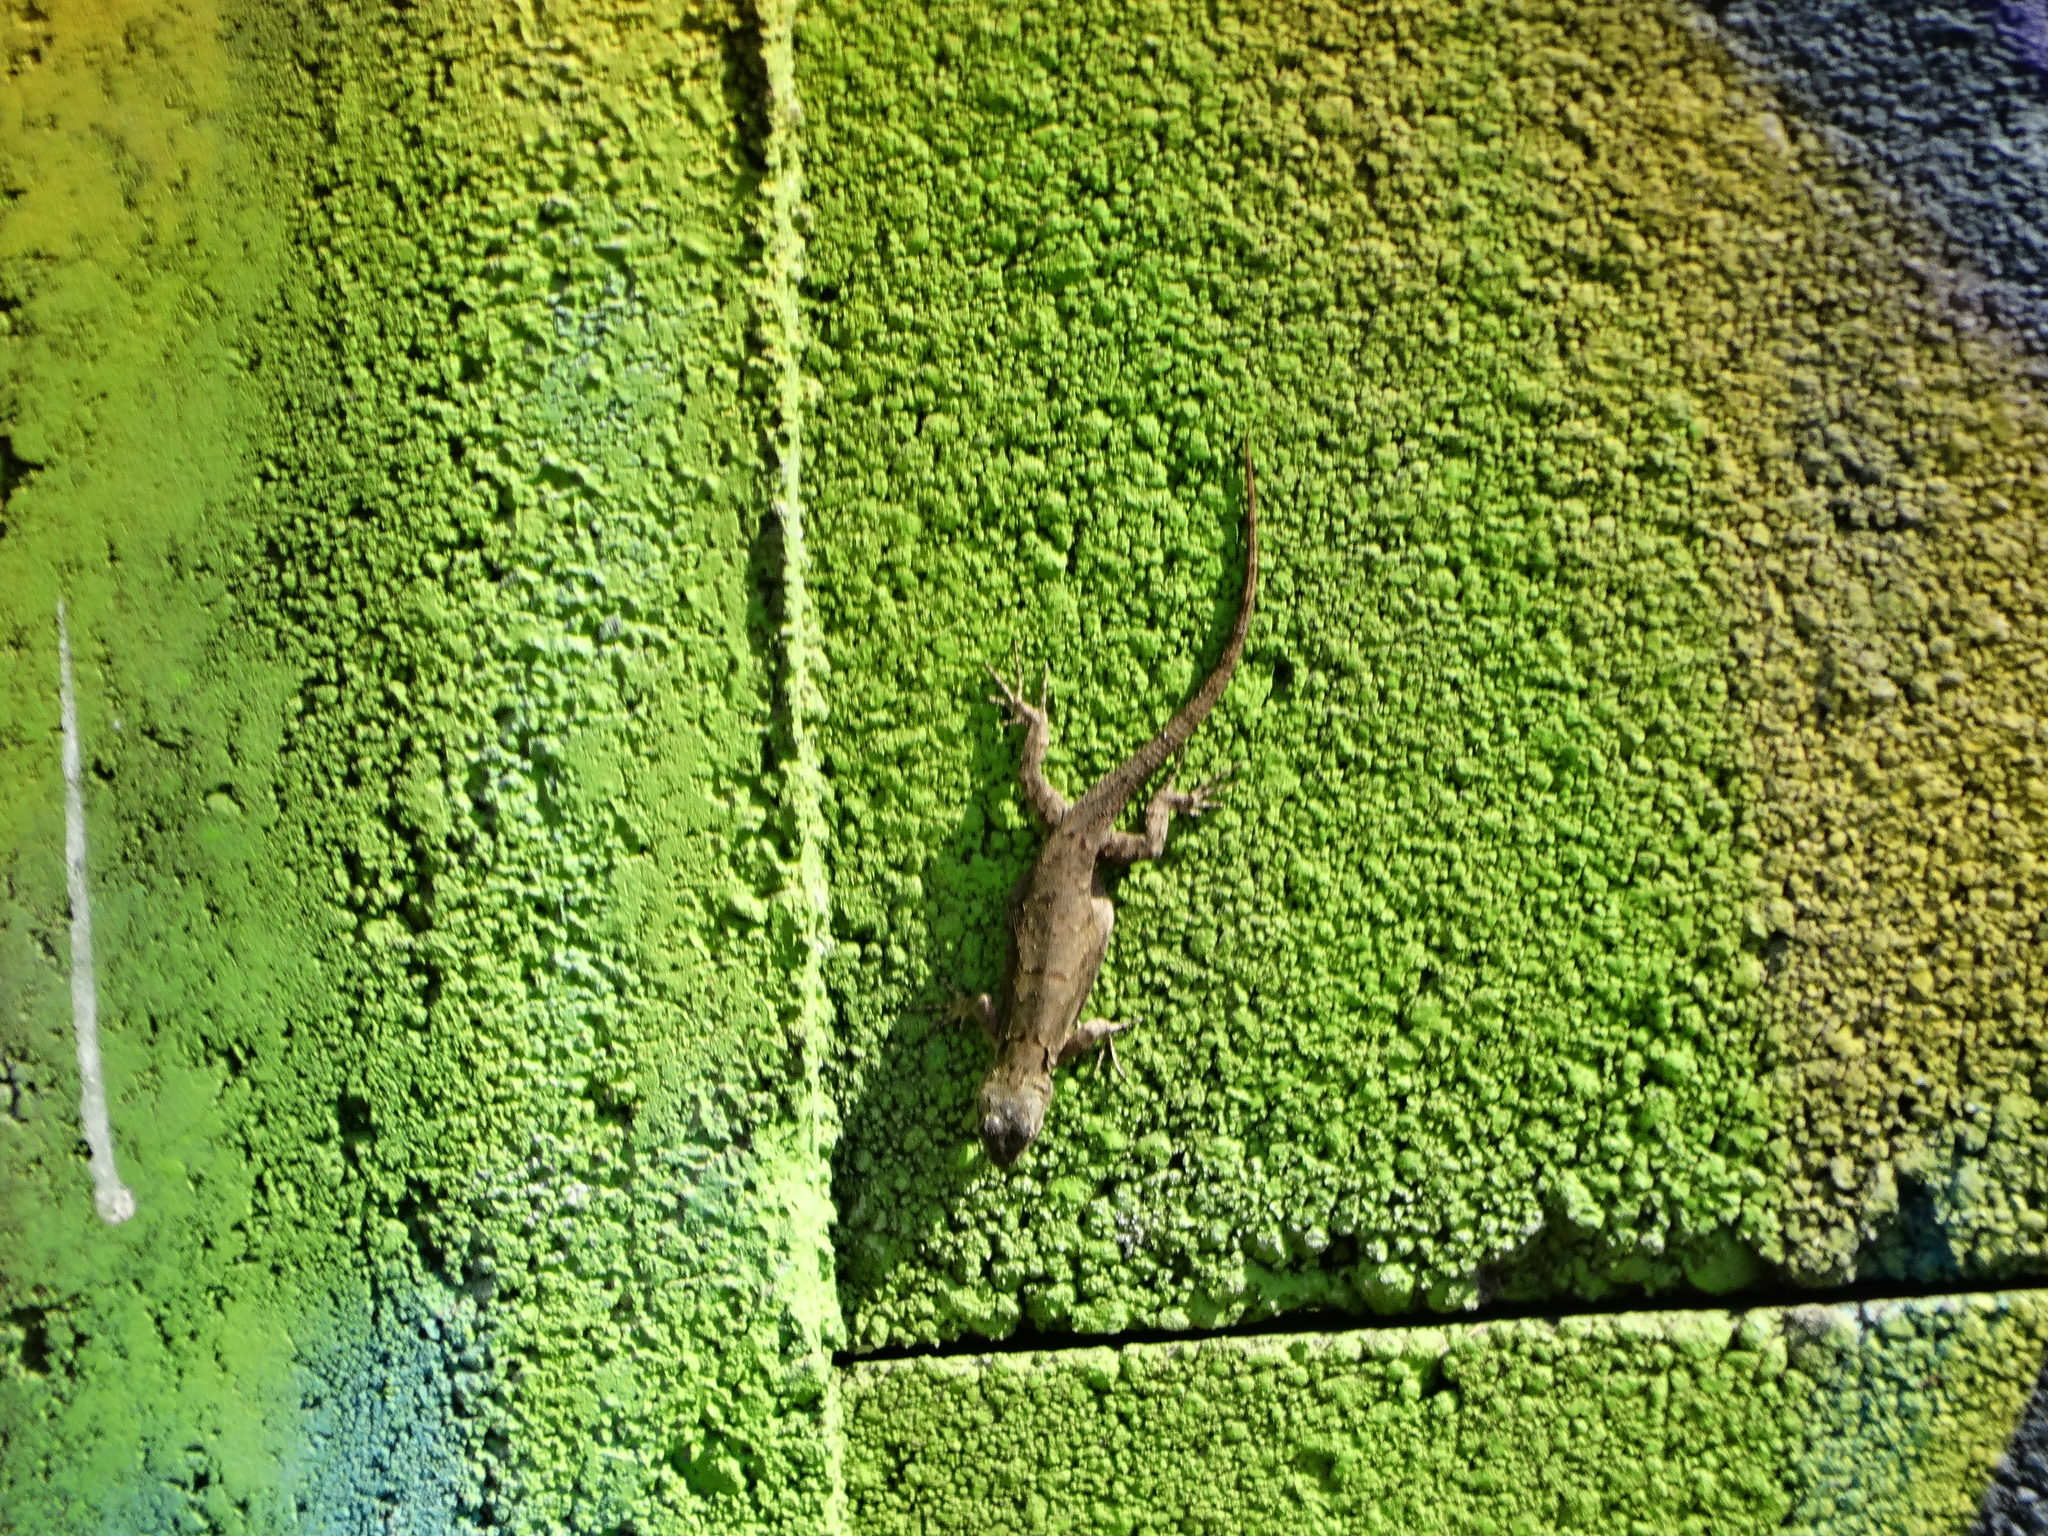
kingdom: Animalia
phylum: Chordata
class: Squamata
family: Phrynosomatidae
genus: Sceloporus
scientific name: Sceloporus grammicus
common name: Mesquite lizard
